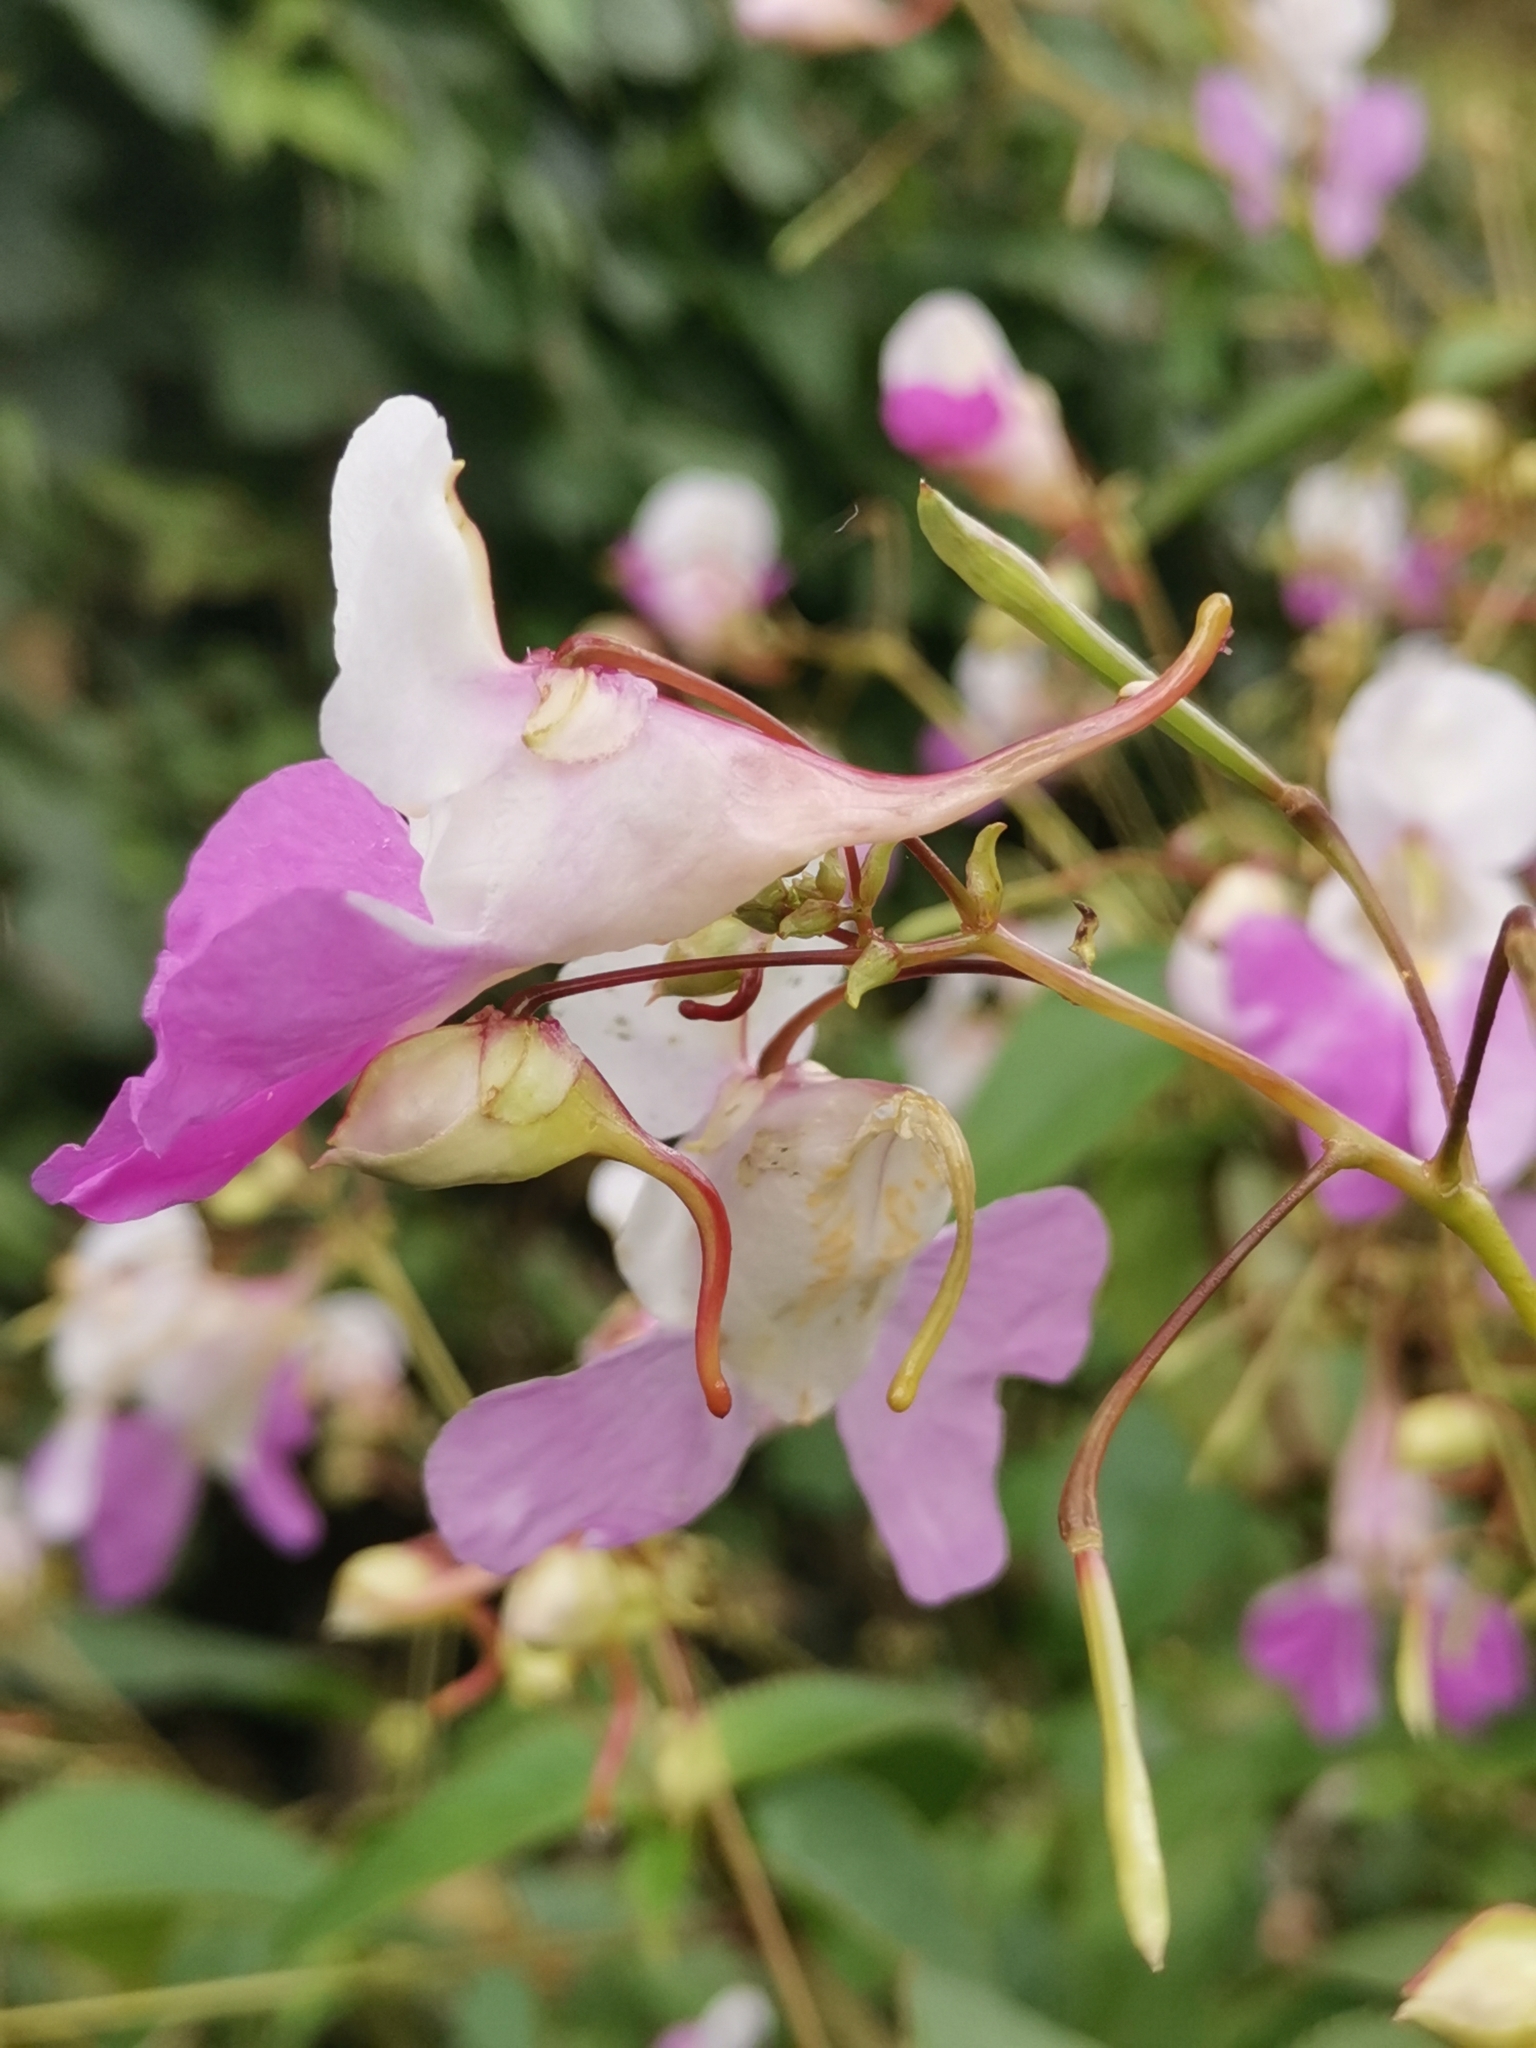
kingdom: Plantae
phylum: Tracheophyta
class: Magnoliopsida
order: Ericales
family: Balsaminaceae
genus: Impatiens
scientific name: Impatiens balfourii
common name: Balfour's touch-me-not
